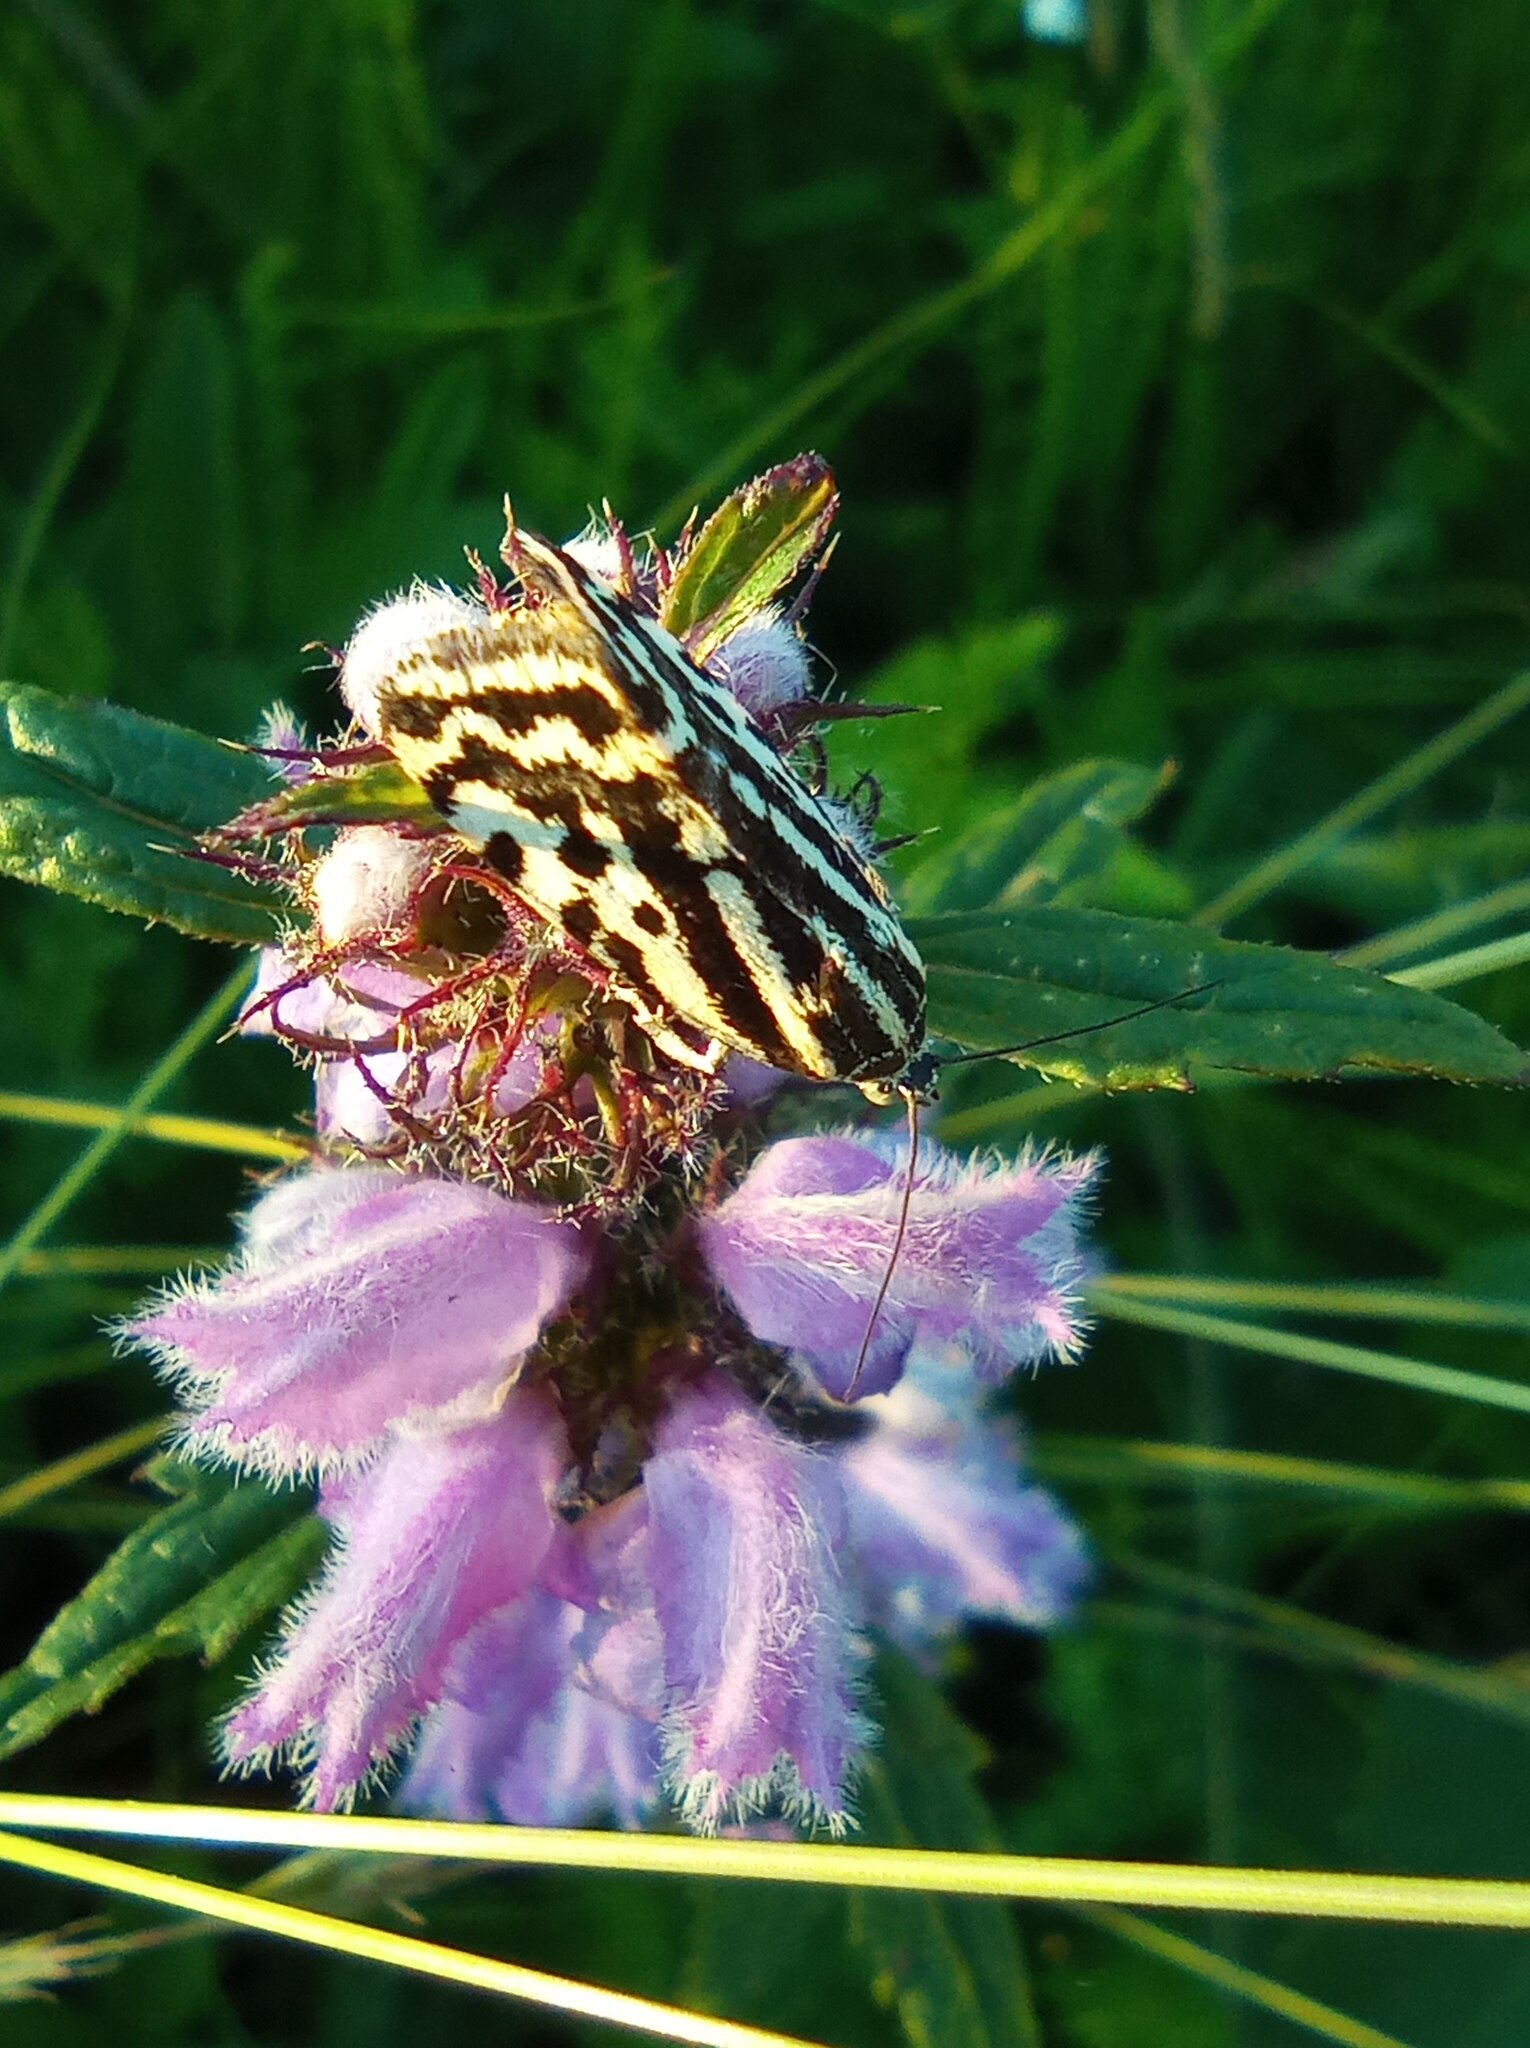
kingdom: Animalia
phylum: Arthropoda
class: Insecta
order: Lepidoptera
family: Noctuidae
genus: Acontia
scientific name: Acontia trabealis
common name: Spotted sulphur
